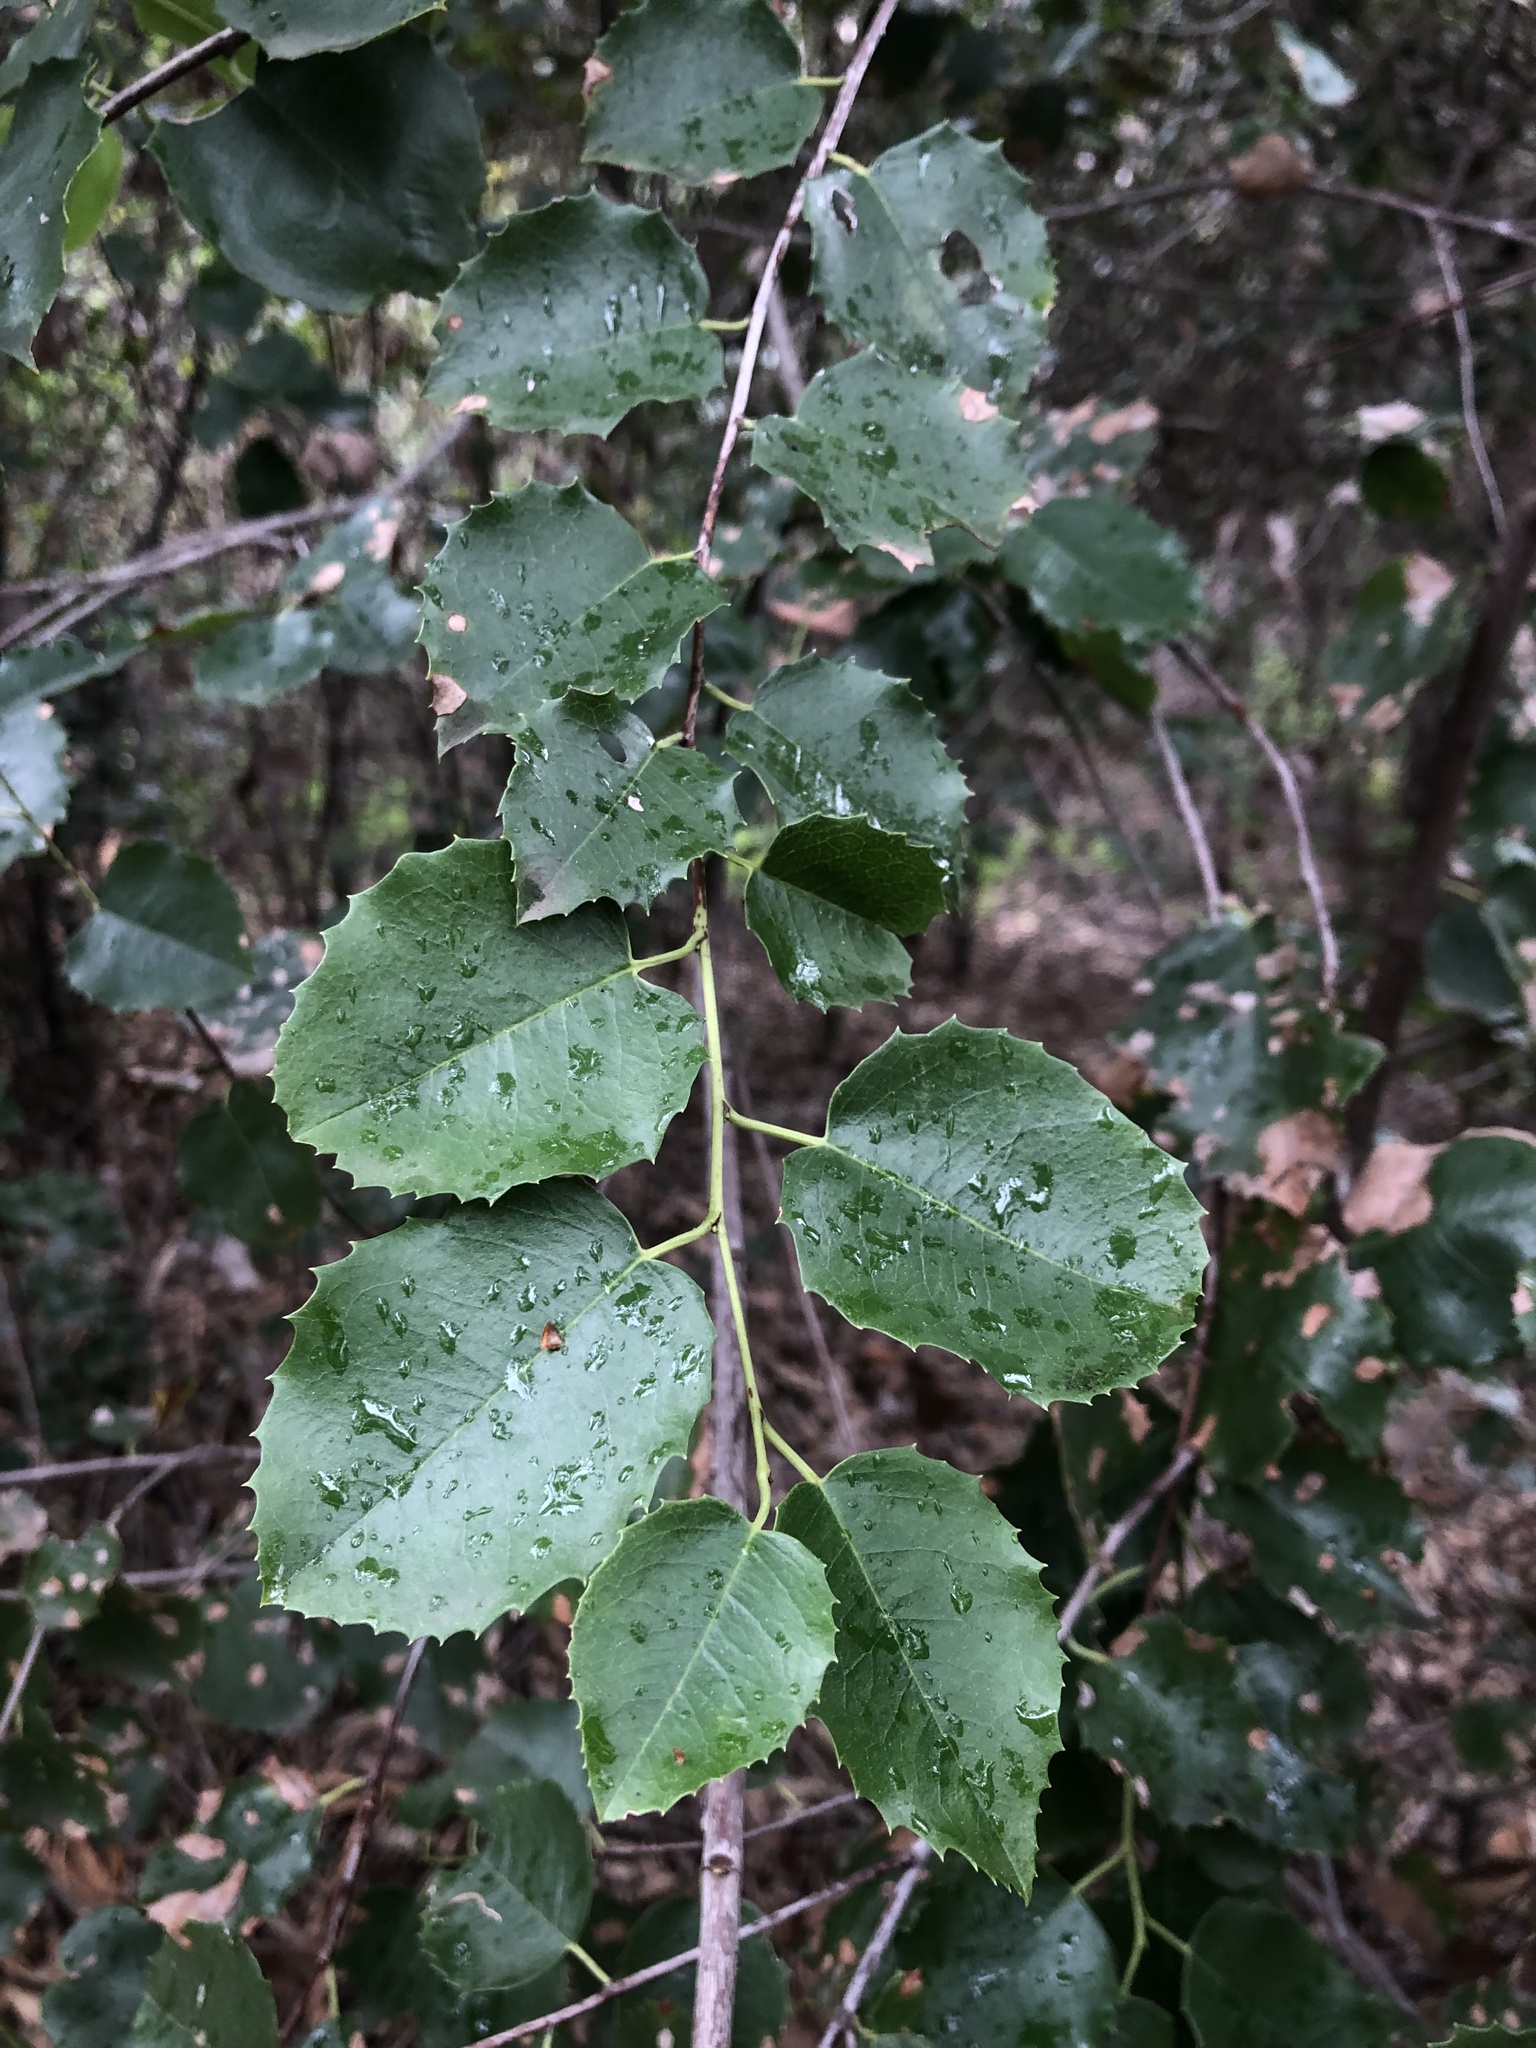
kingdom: Plantae
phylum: Tracheophyta
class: Magnoliopsida
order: Rosales
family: Rosaceae
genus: Prunus
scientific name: Prunus ilicifolia
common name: Hollyleaf cherry
